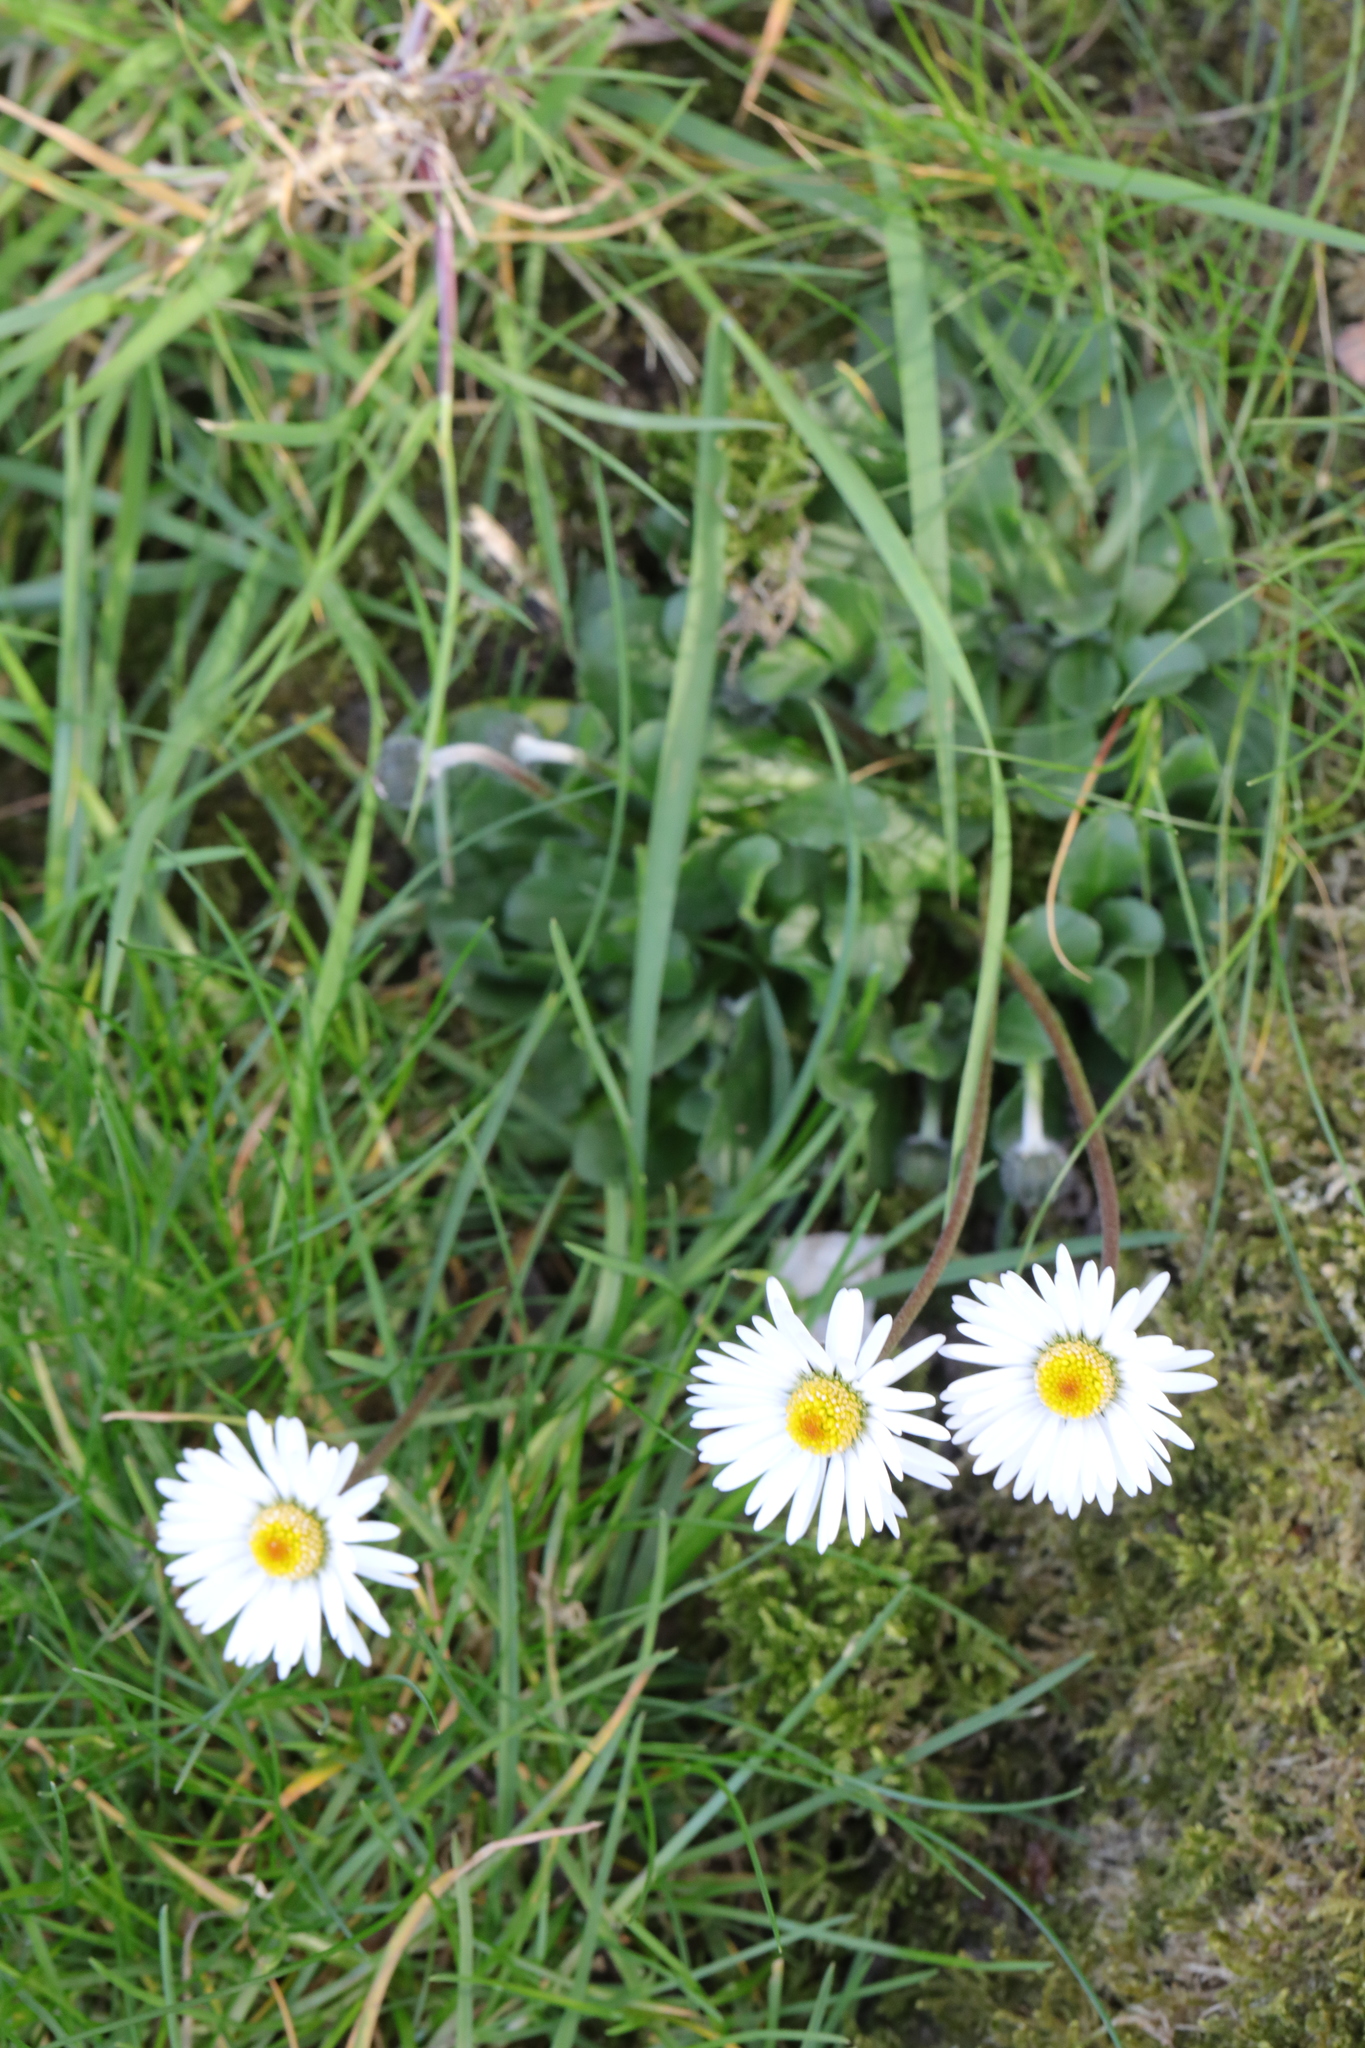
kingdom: Plantae
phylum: Tracheophyta
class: Magnoliopsida
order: Asterales
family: Asteraceae
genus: Bellis
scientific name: Bellis perennis
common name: Lawndaisy
